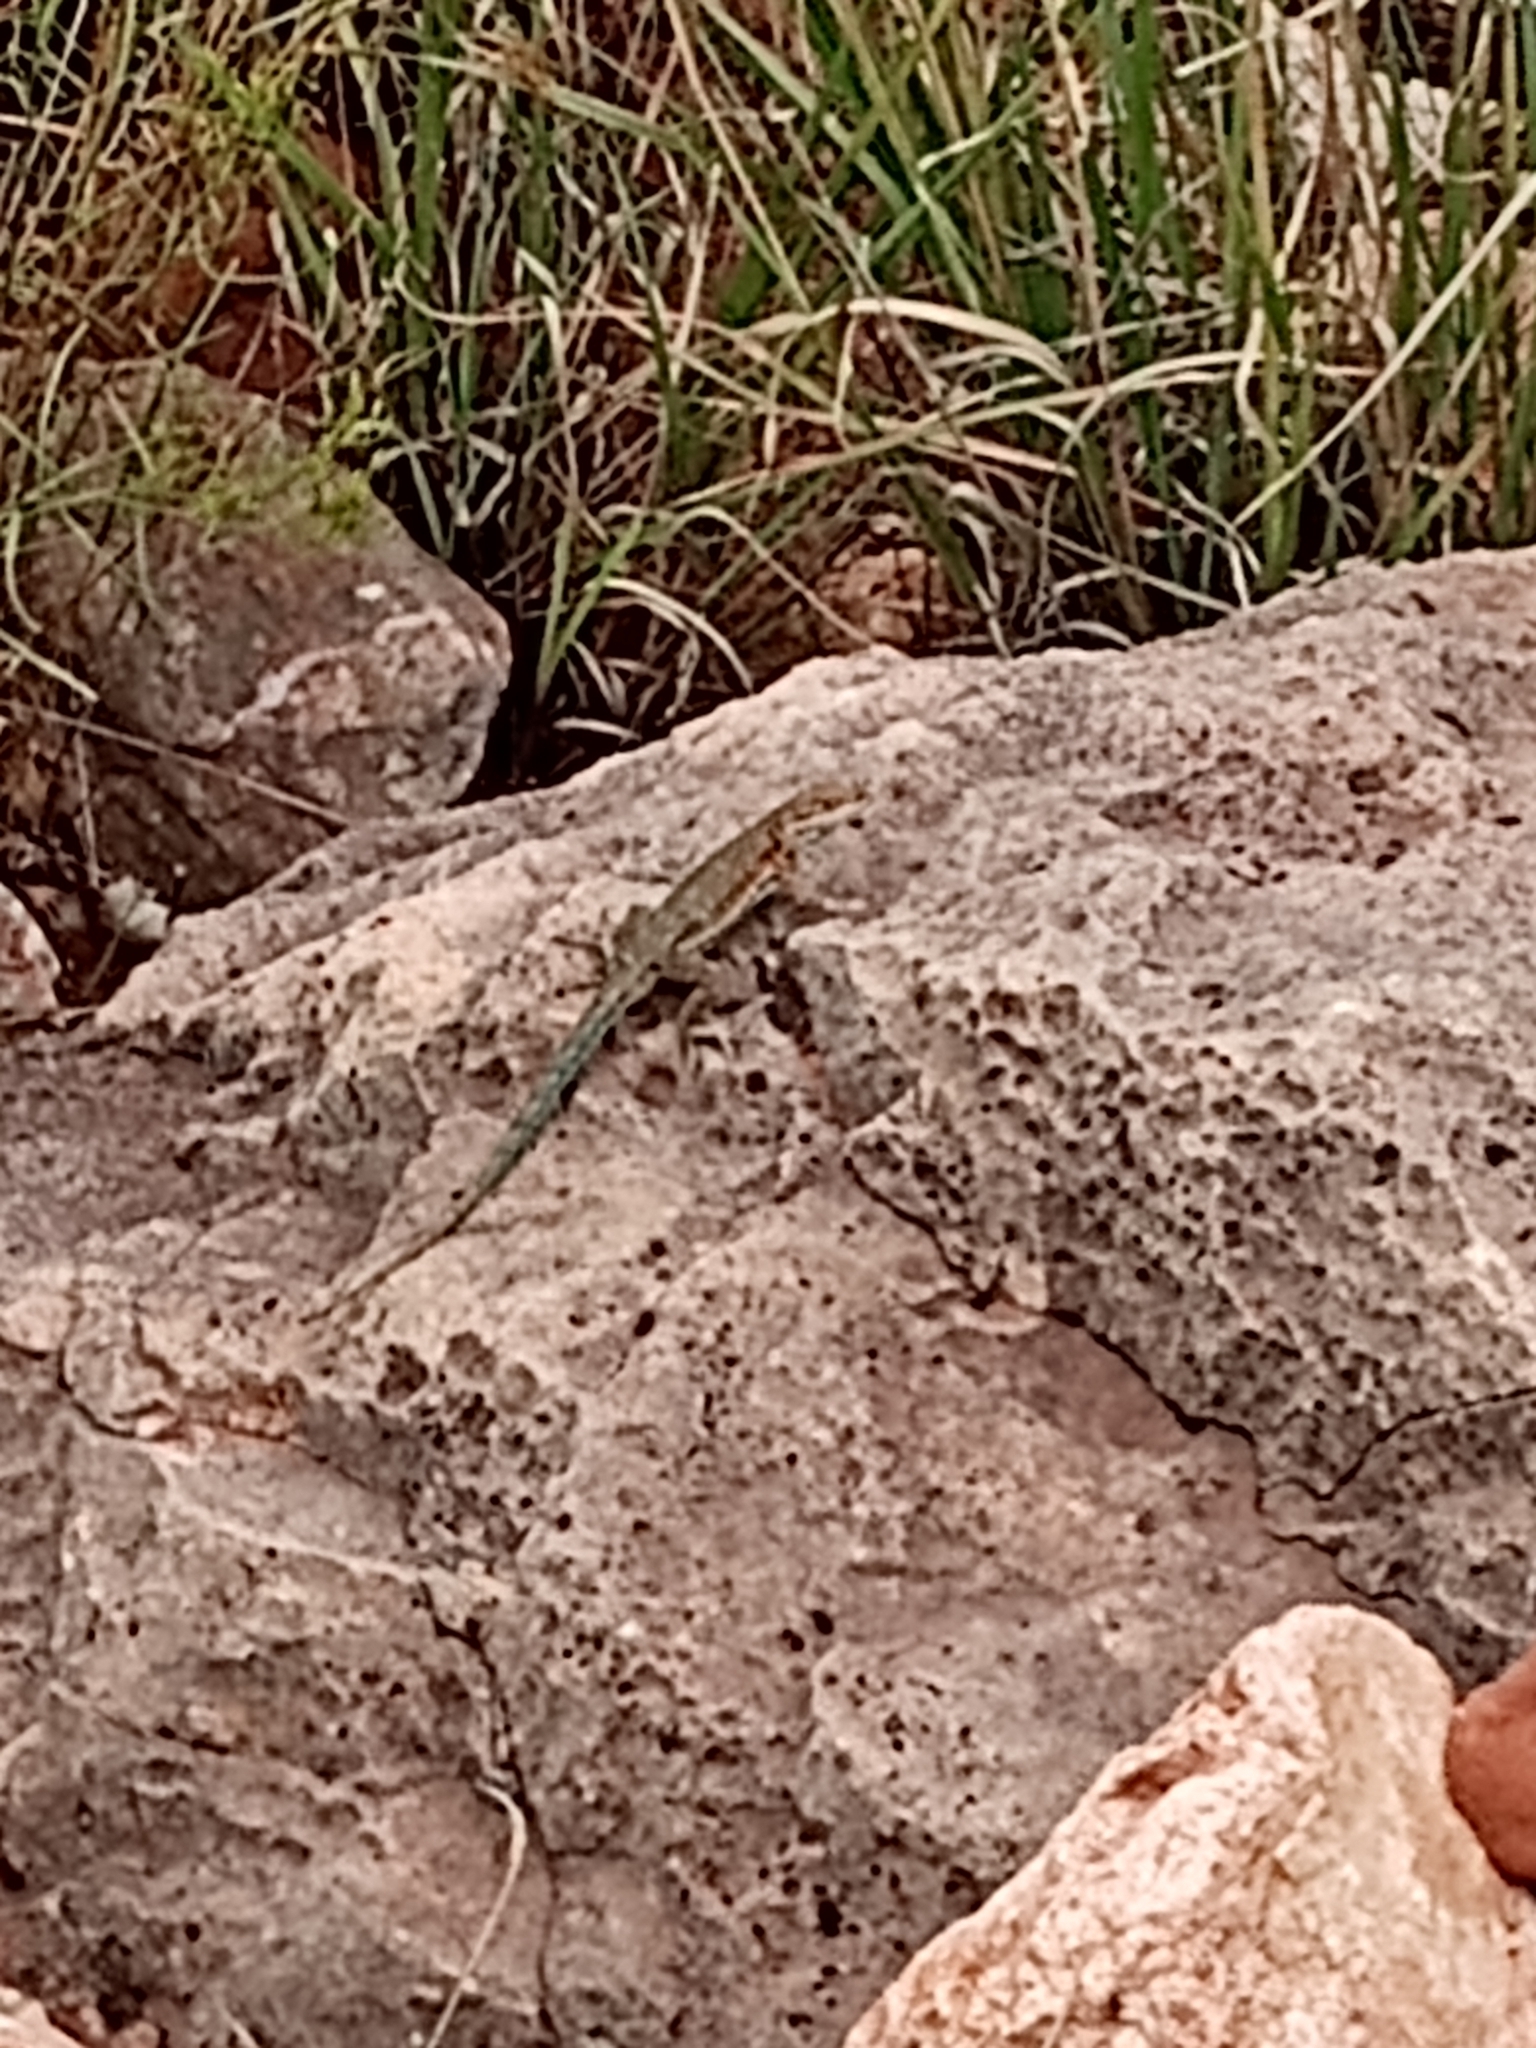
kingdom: Animalia
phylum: Chordata
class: Squamata
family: Phrynosomatidae
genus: Uta
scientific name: Uta stansburiana
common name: Side-blotched lizard
